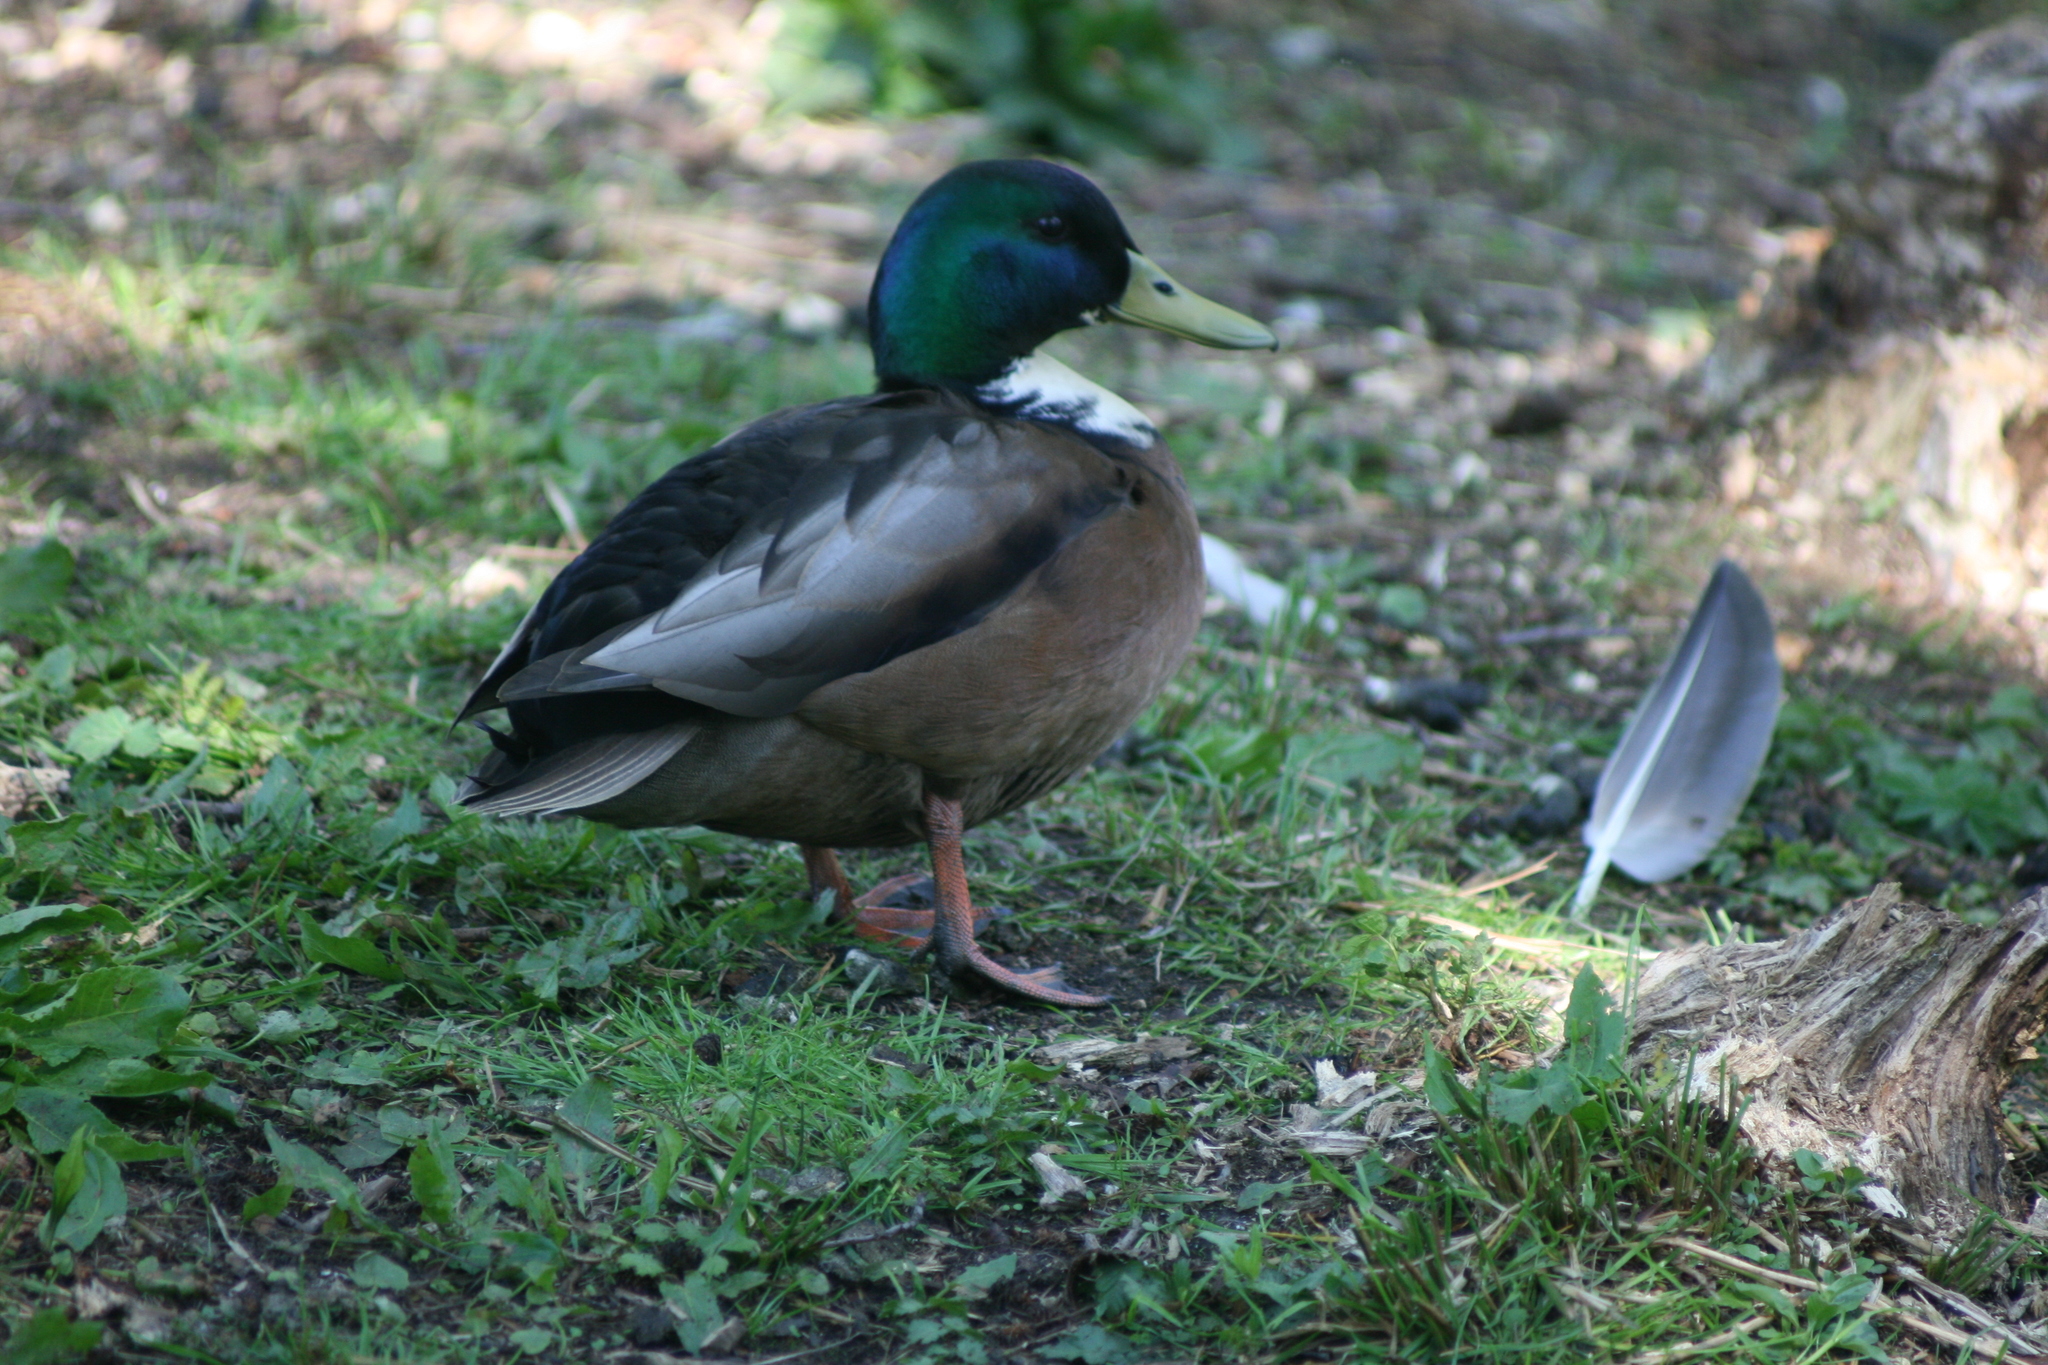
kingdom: Animalia
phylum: Chordata
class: Aves
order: Anseriformes
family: Anatidae
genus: Anas
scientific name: Anas platyrhynchos
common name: Mallard
